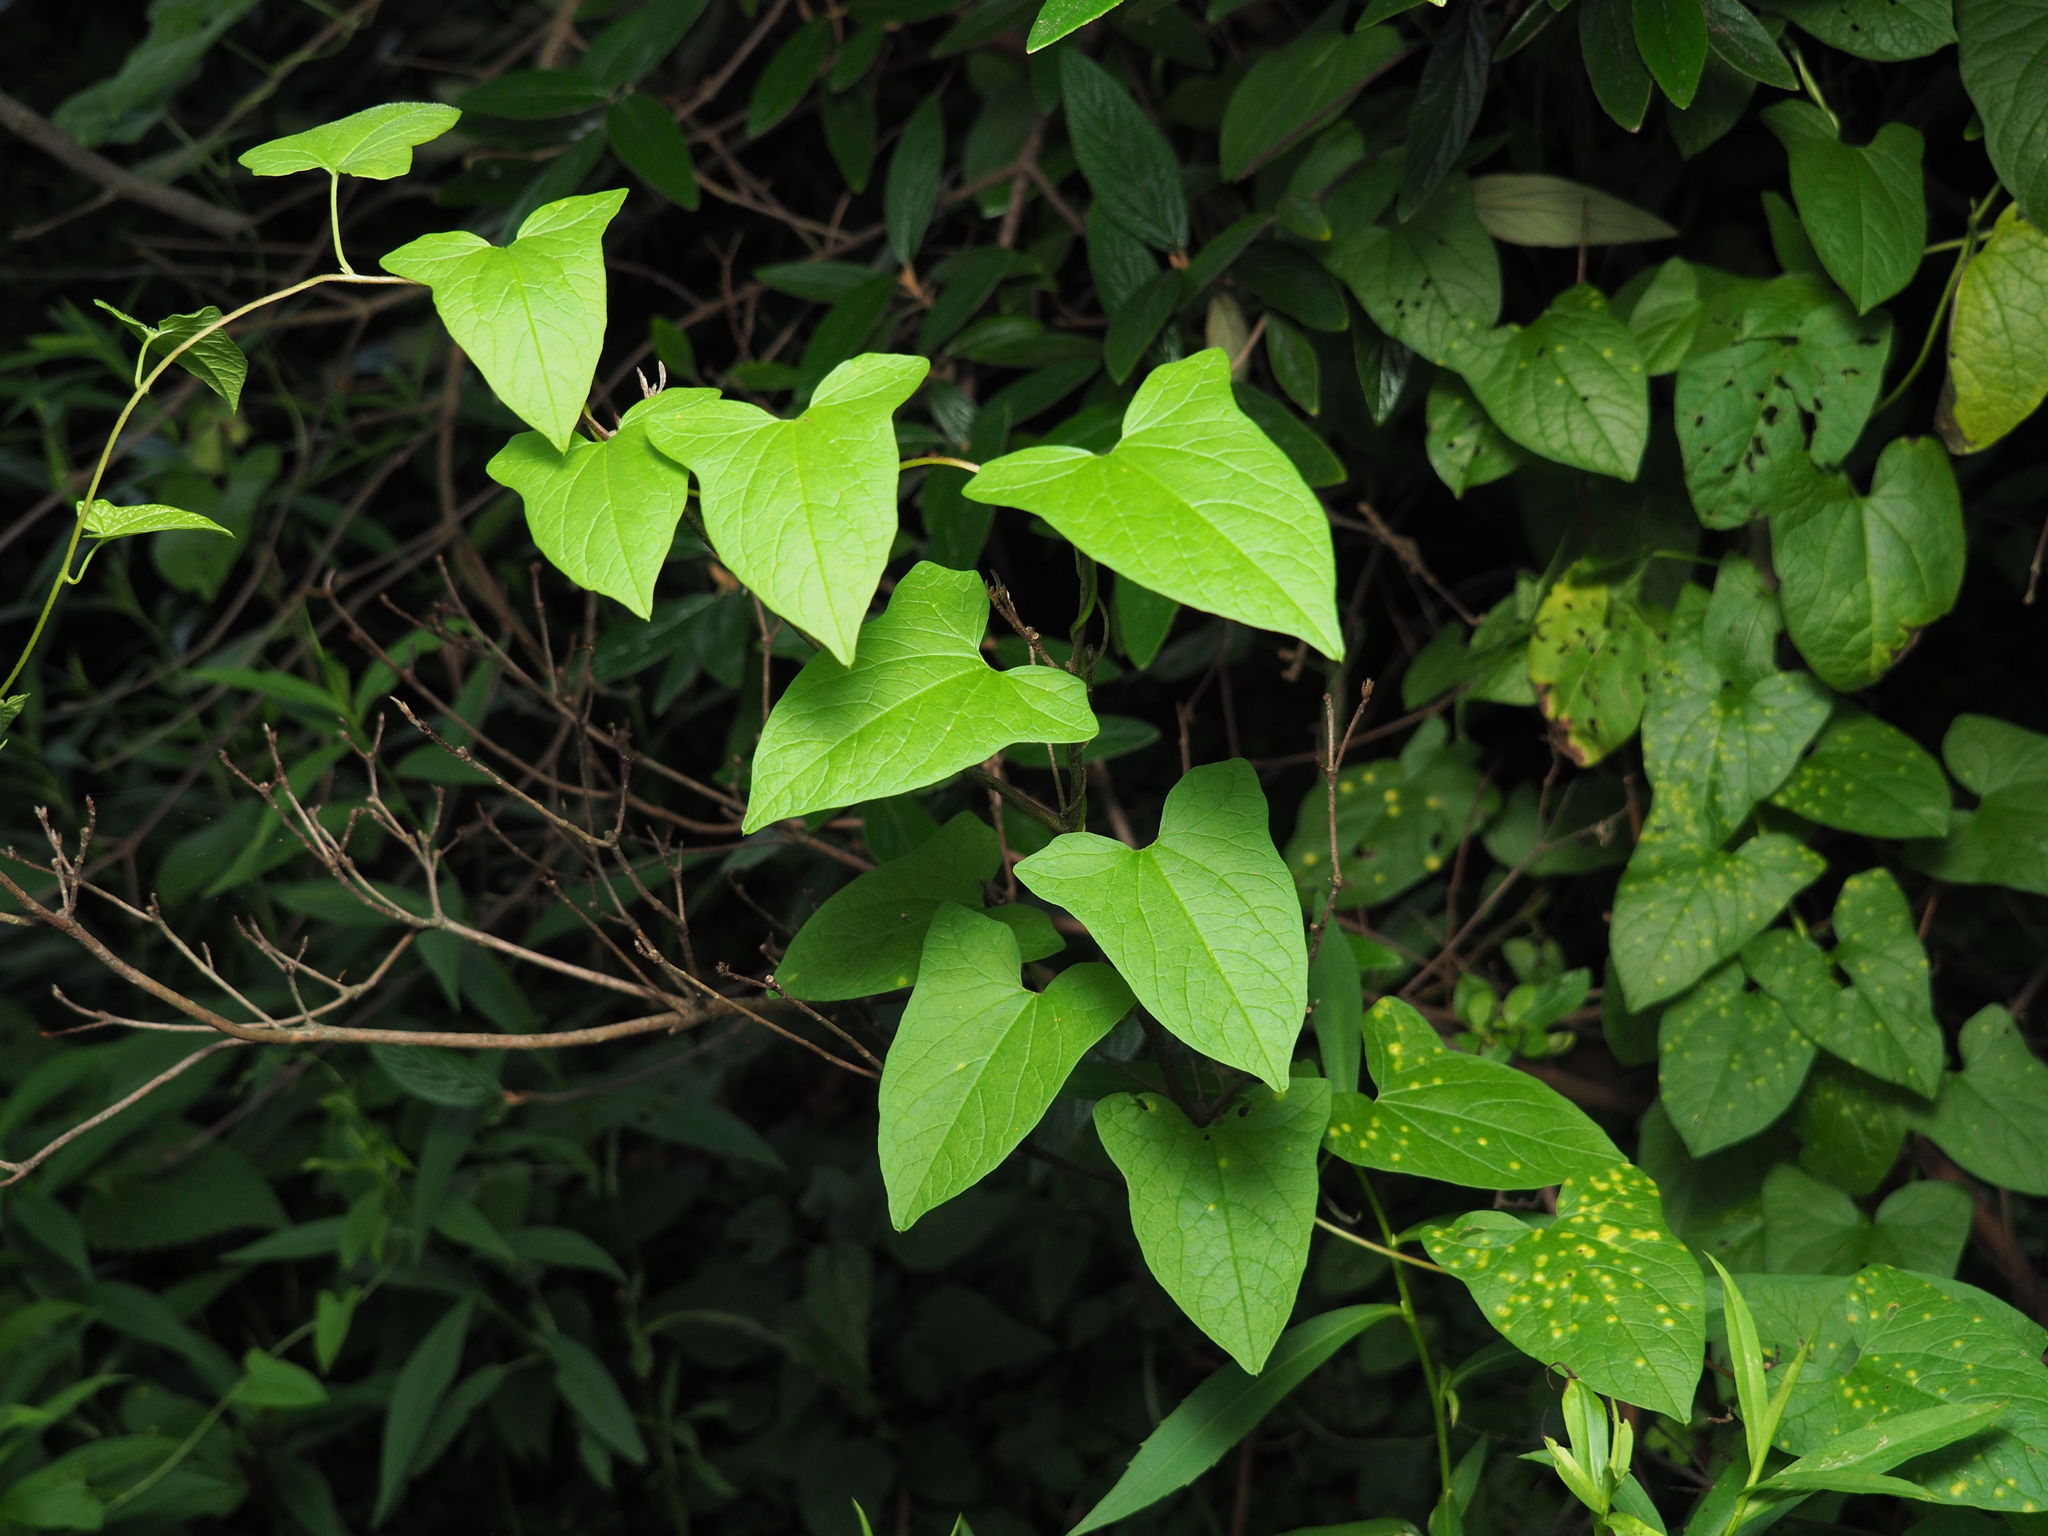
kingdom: Plantae
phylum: Tracheophyta
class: Magnoliopsida
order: Solanales
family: Convolvulaceae
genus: Calystegia
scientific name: Calystegia sepium
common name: Hedge bindweed
